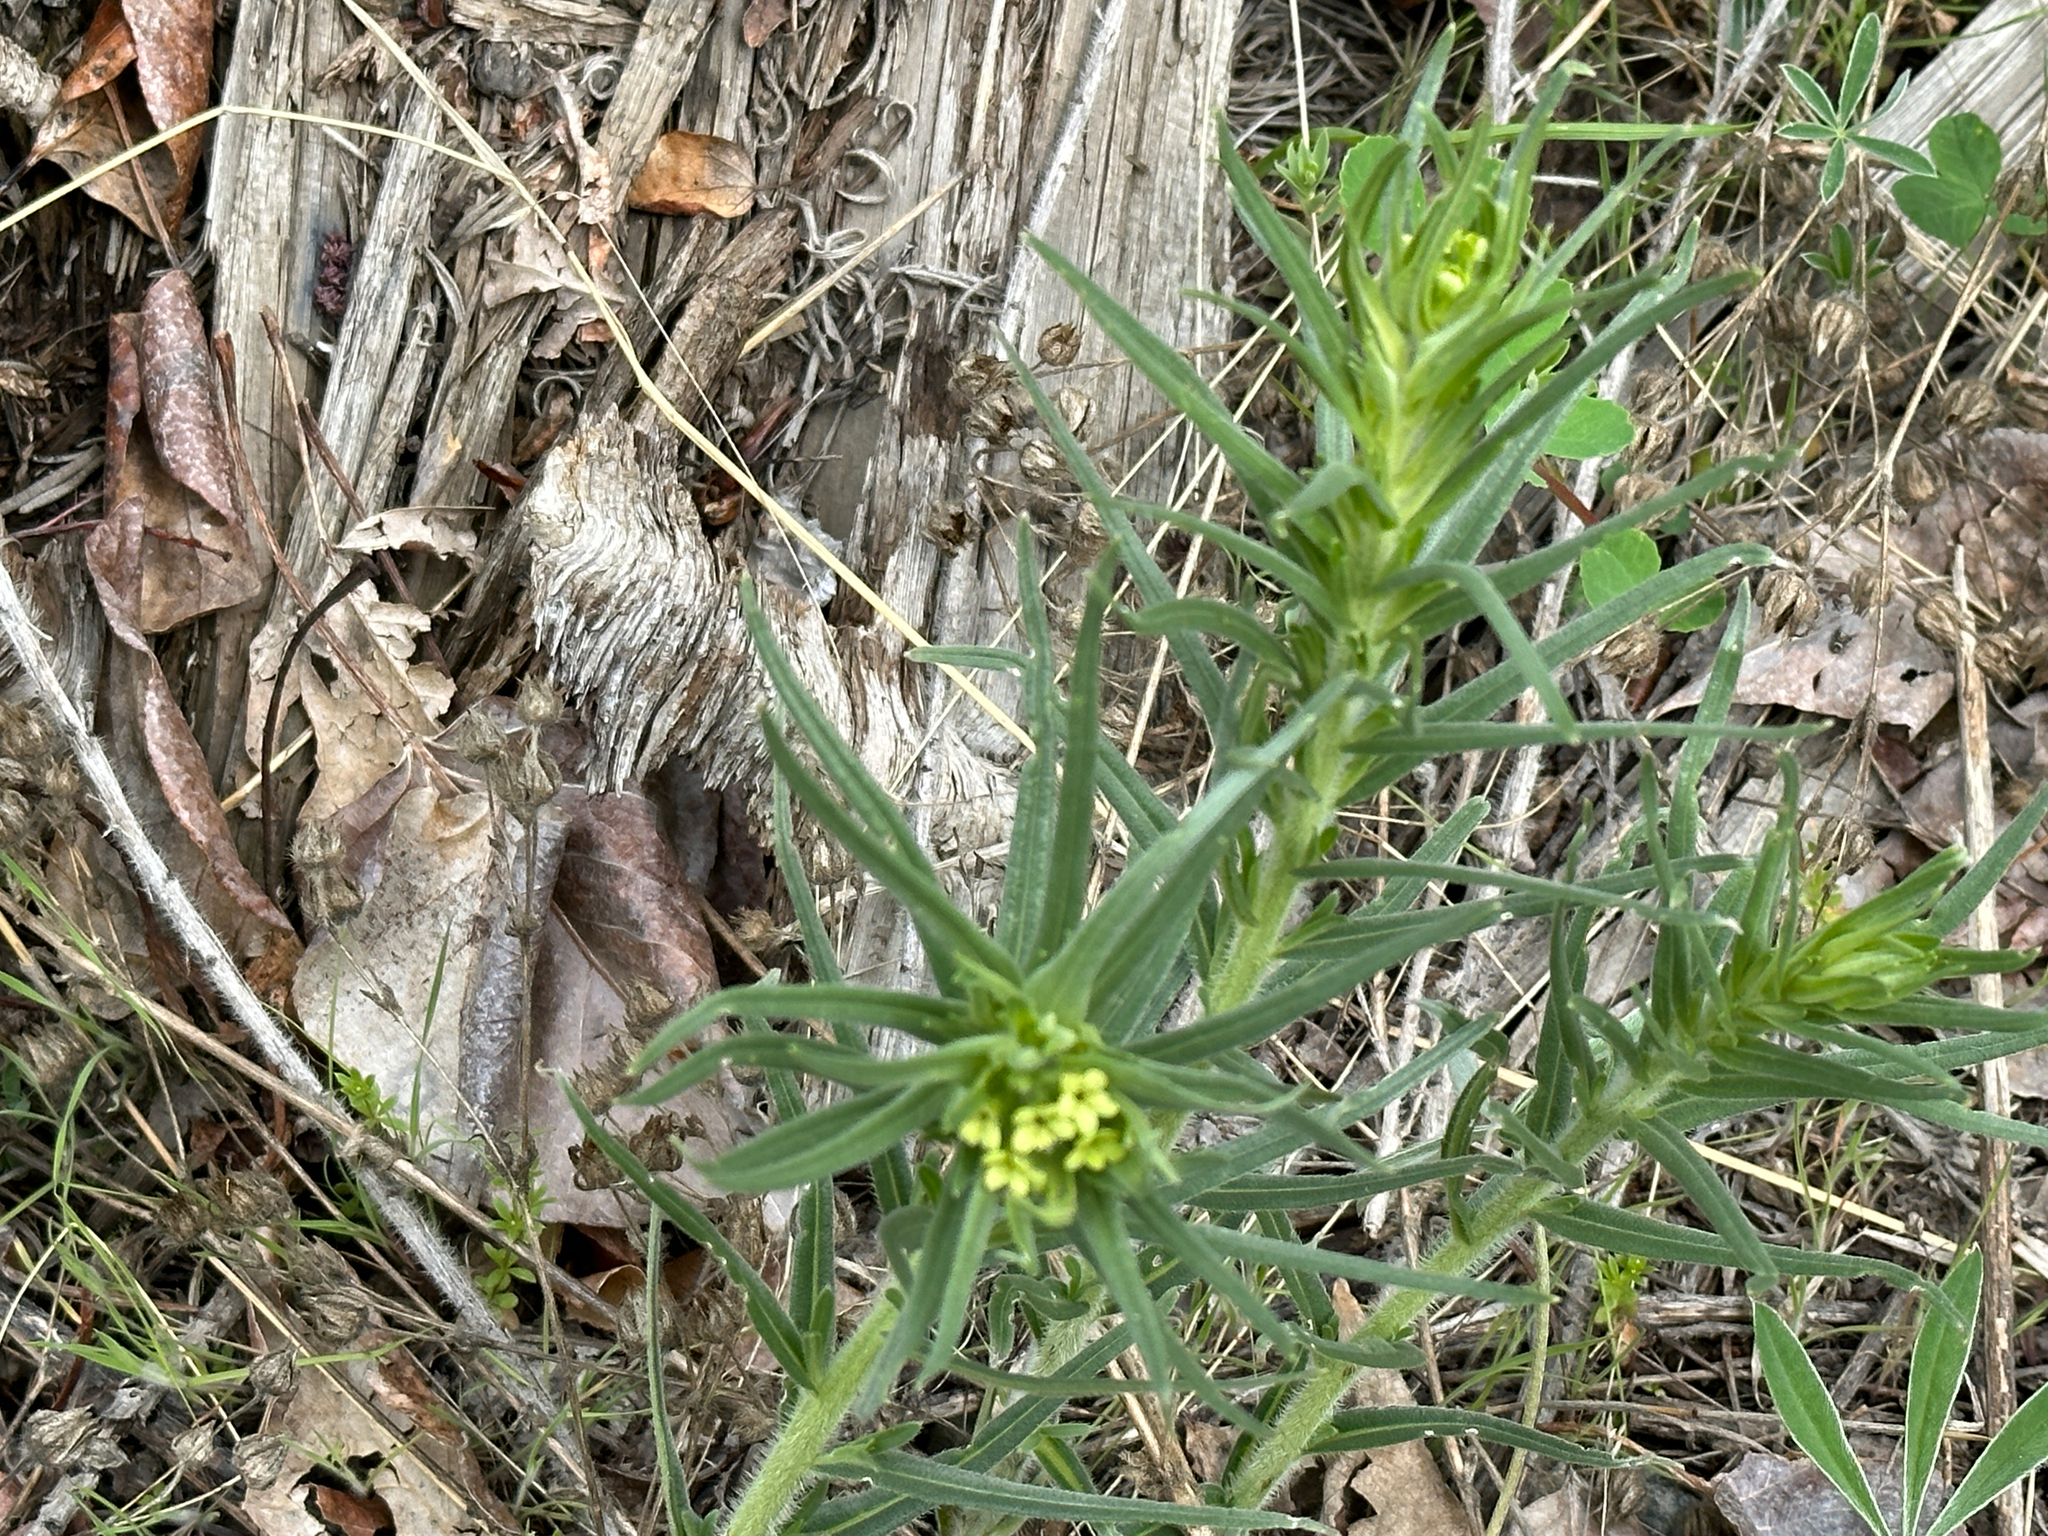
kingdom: Plantae
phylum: Tracheophyta
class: Magnoliopsida
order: Boraginales
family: Boraginaceae
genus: Lithospermum
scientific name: Lithospermum ruderale
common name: Western gromwell
